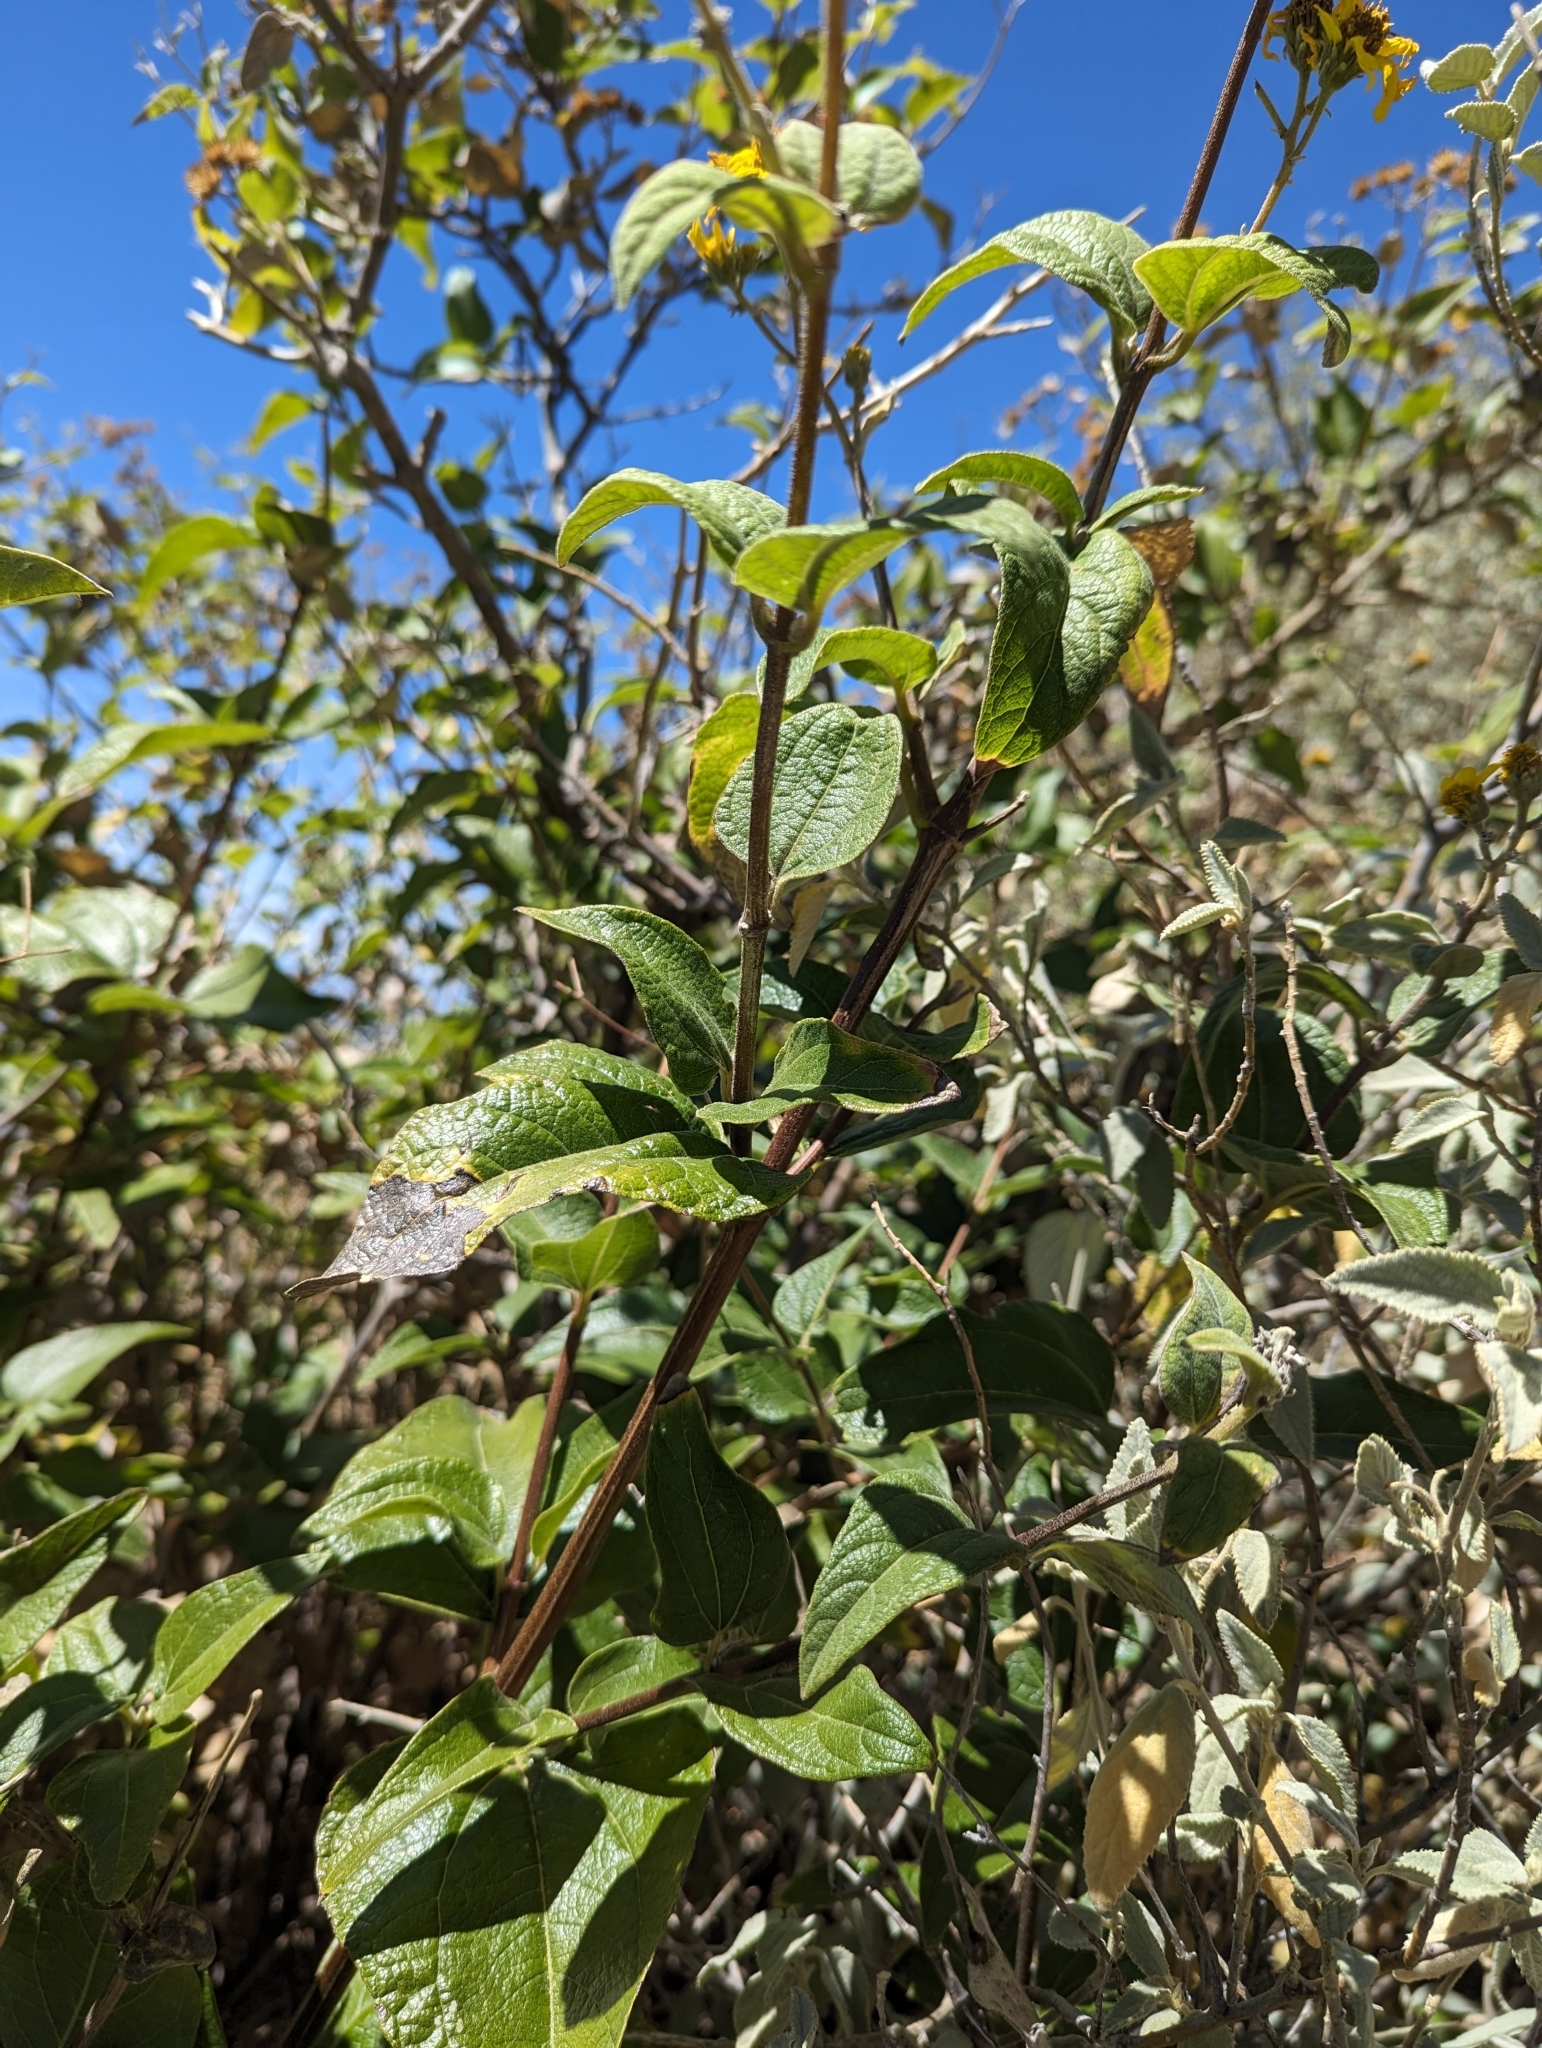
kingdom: Plantae
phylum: Tracheophyta
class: Magnoliopsida
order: Asterales
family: Asteraceae
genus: Bahiopsis
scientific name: Bahiopsis similis
